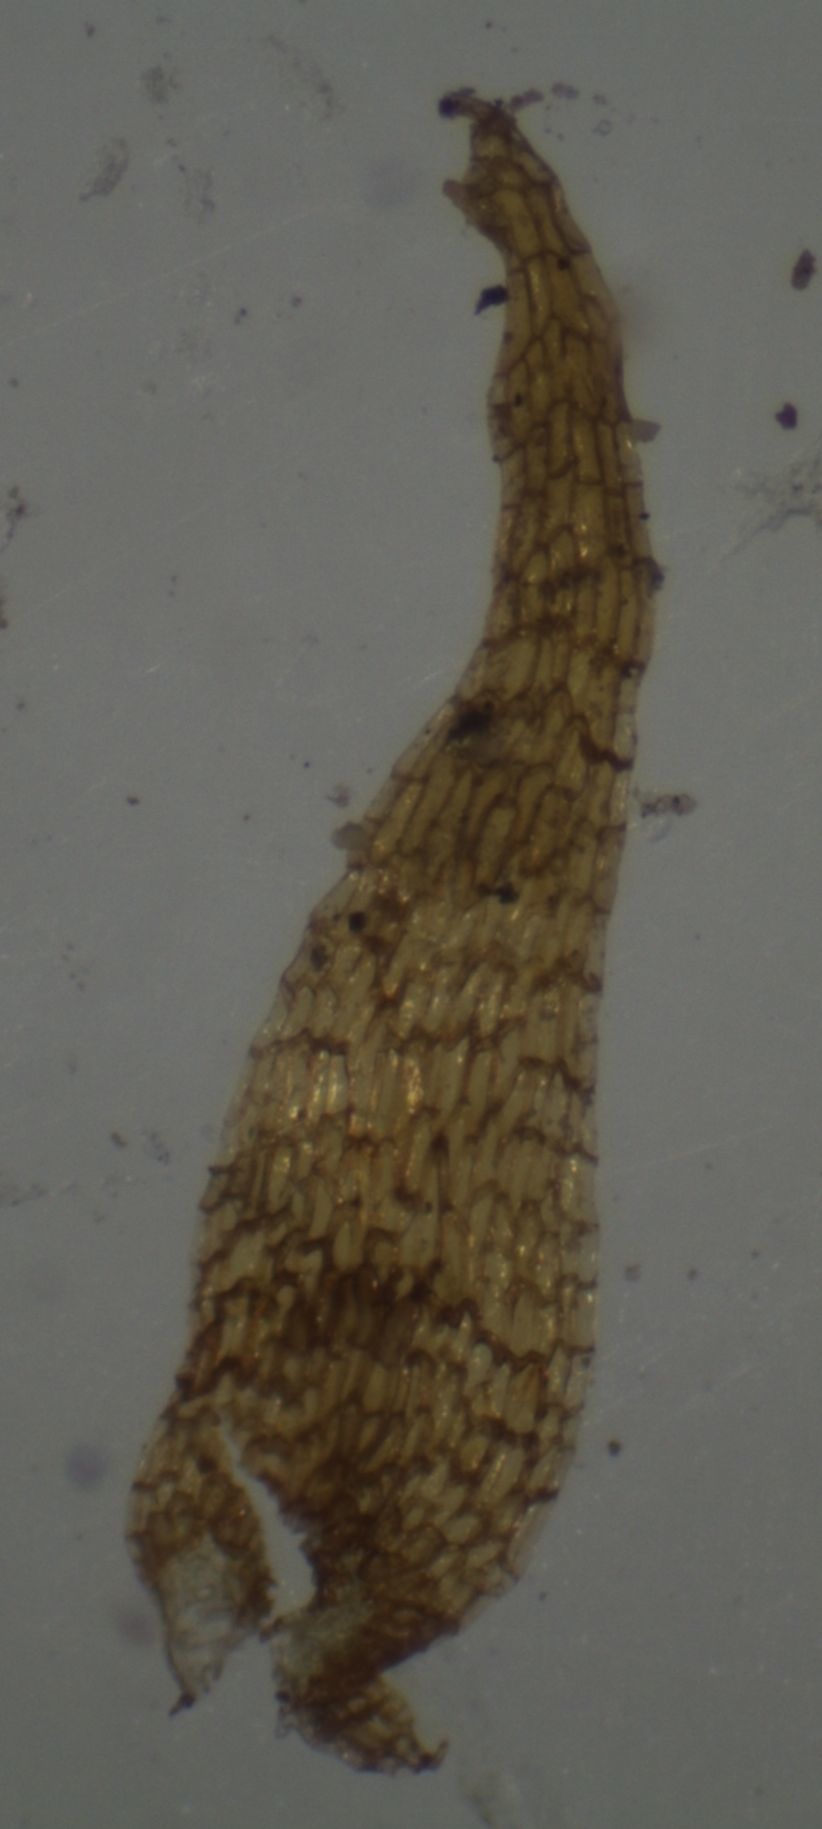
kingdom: Plantae
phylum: Tracheophyta
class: Polypodiopsida
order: Polypodiales
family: Polypodiaceae
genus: Notogrammitis
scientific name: Notogrammitis ciliata
